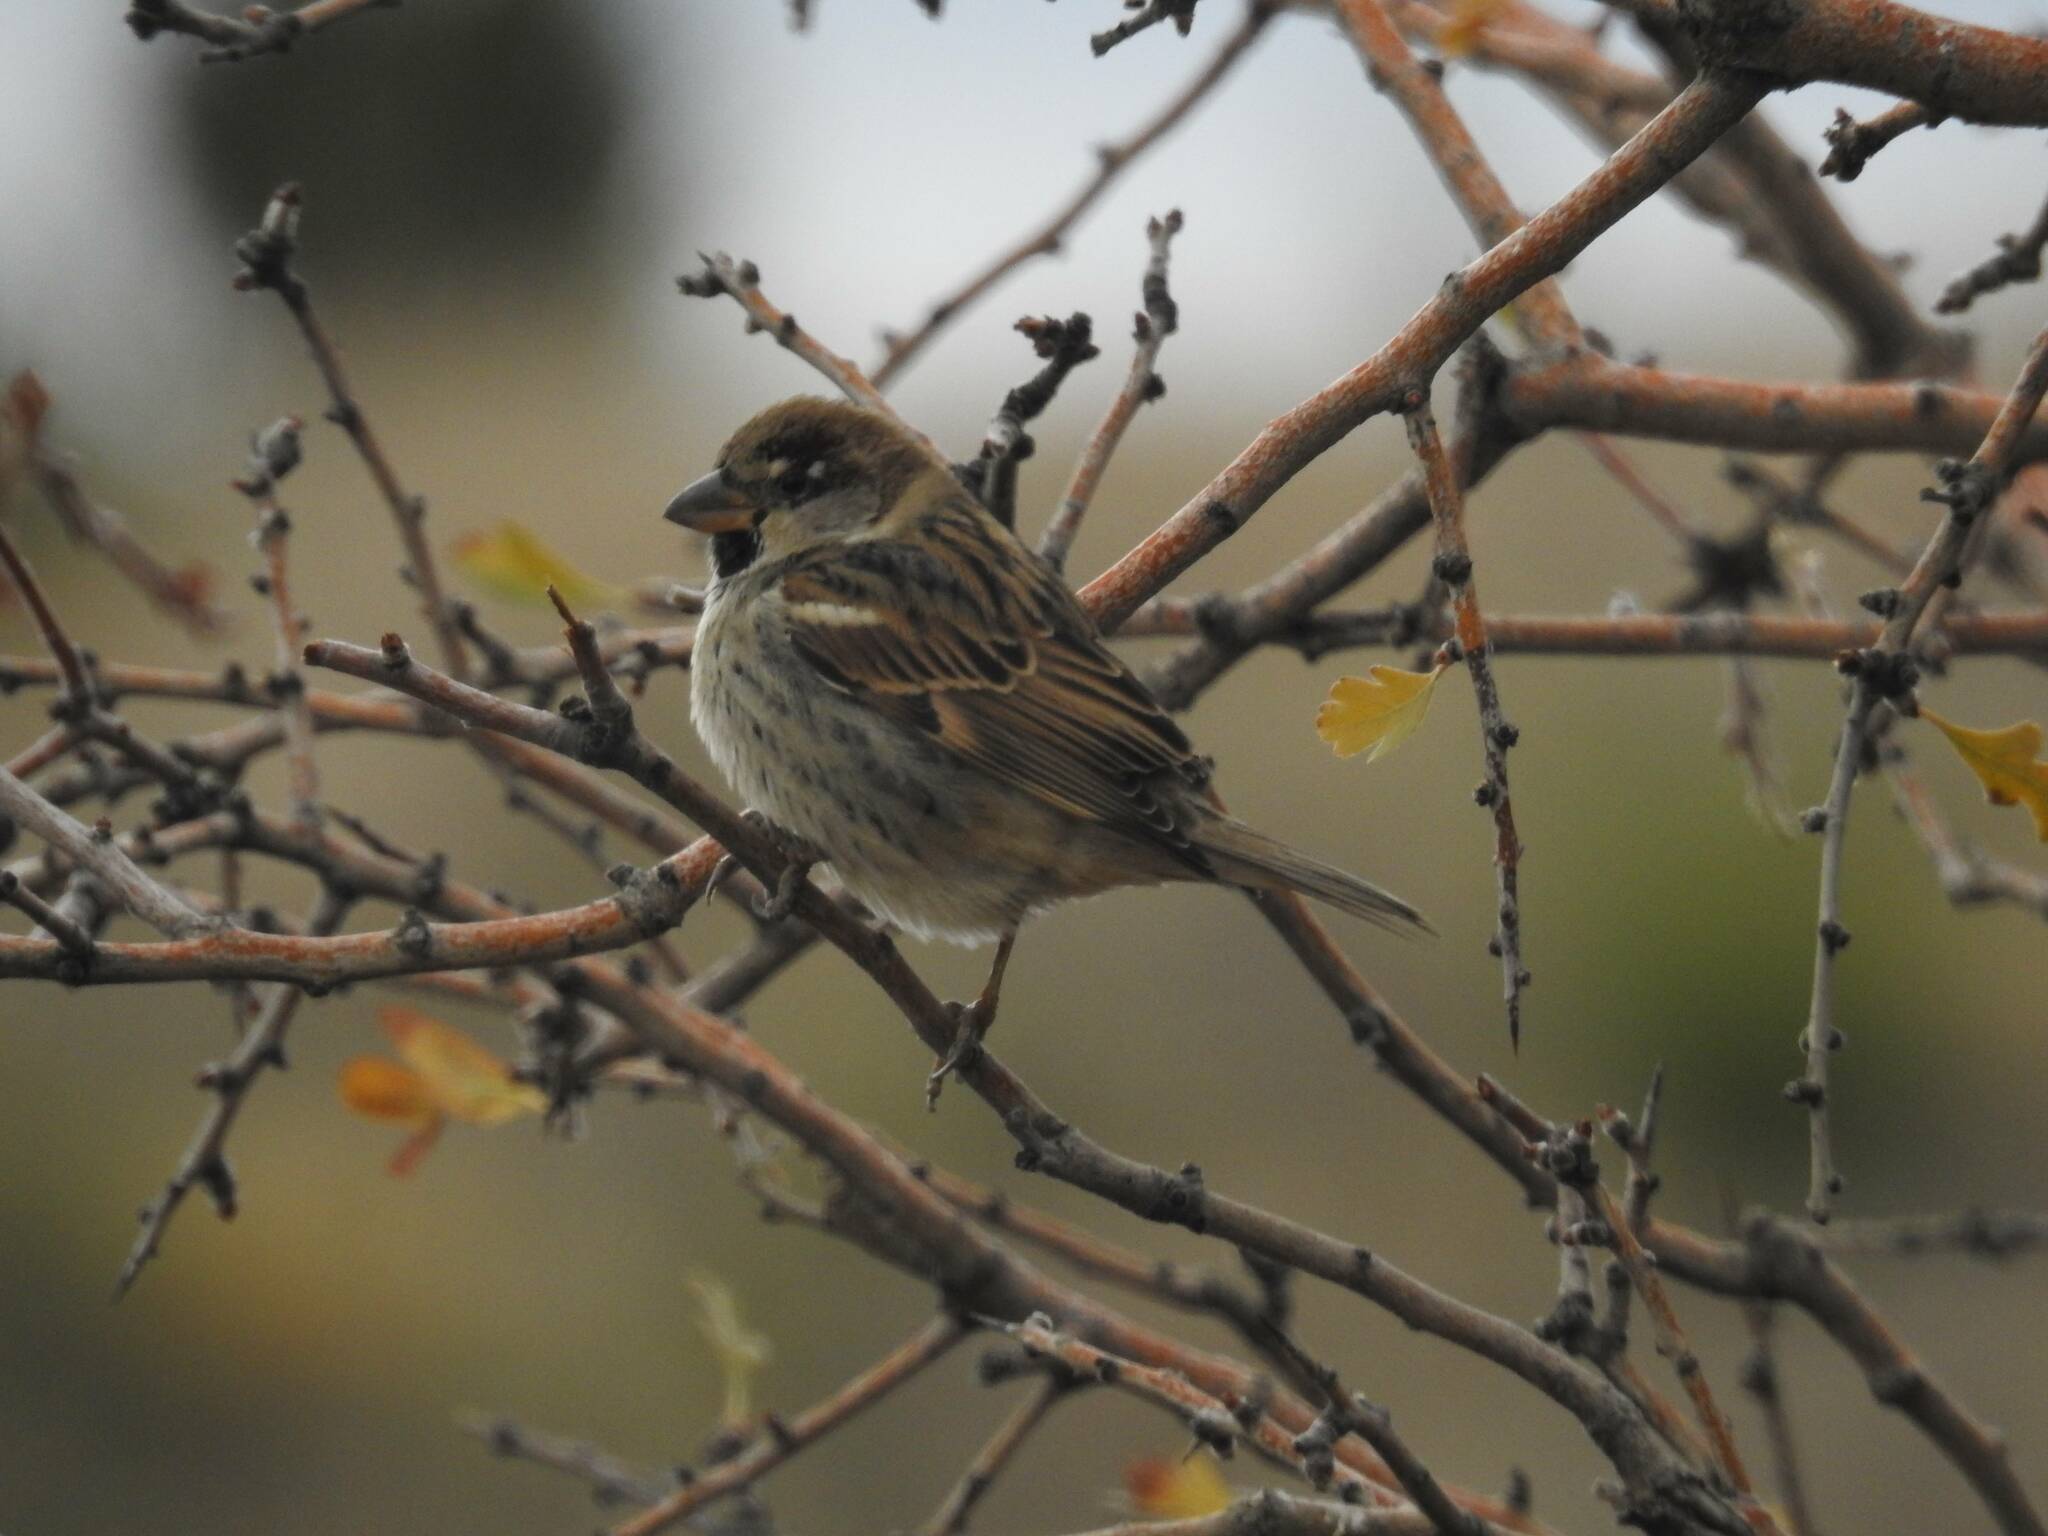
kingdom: Animalia
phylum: Chordata
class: Aves
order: Passeriformes
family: Passeridae
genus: Passer
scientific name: Passer hispaniolensis
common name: Spanish sparrow
